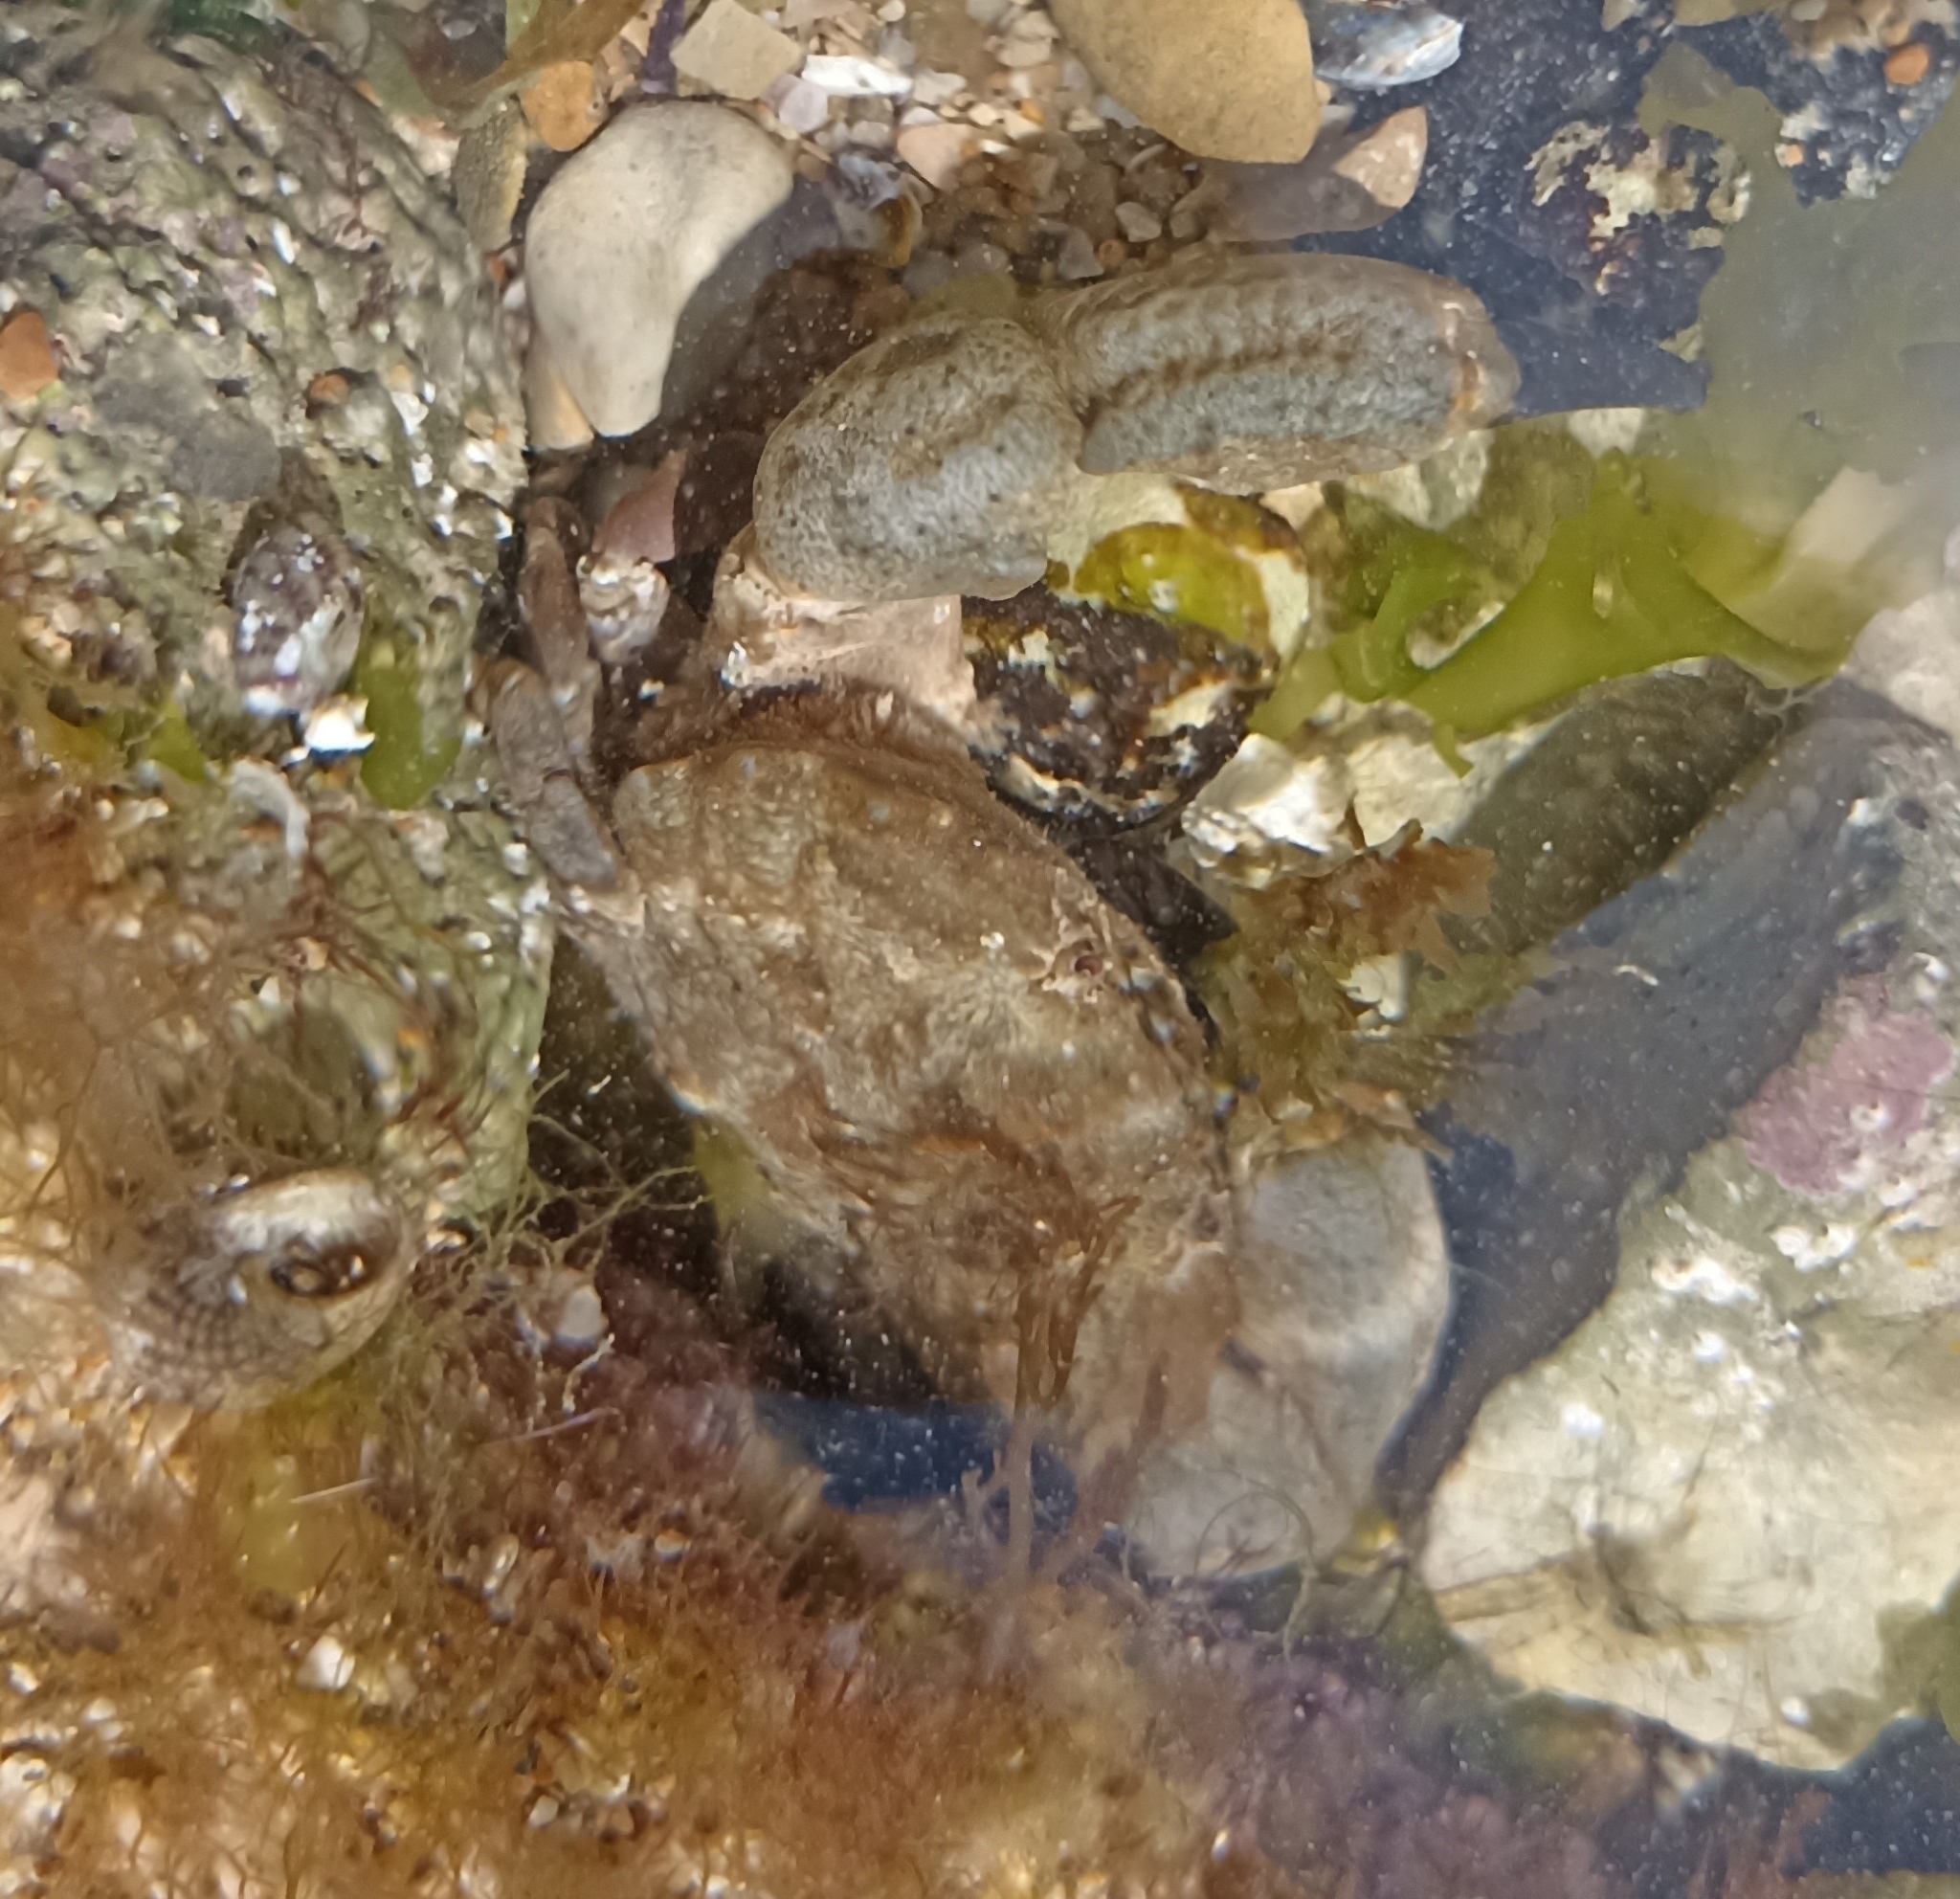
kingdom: Animalia
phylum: Arthropoda
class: Malacostraca
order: Decapoda
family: Xanthidae
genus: Xantho
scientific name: Xantho hydrophilus
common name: Montagu's crab
